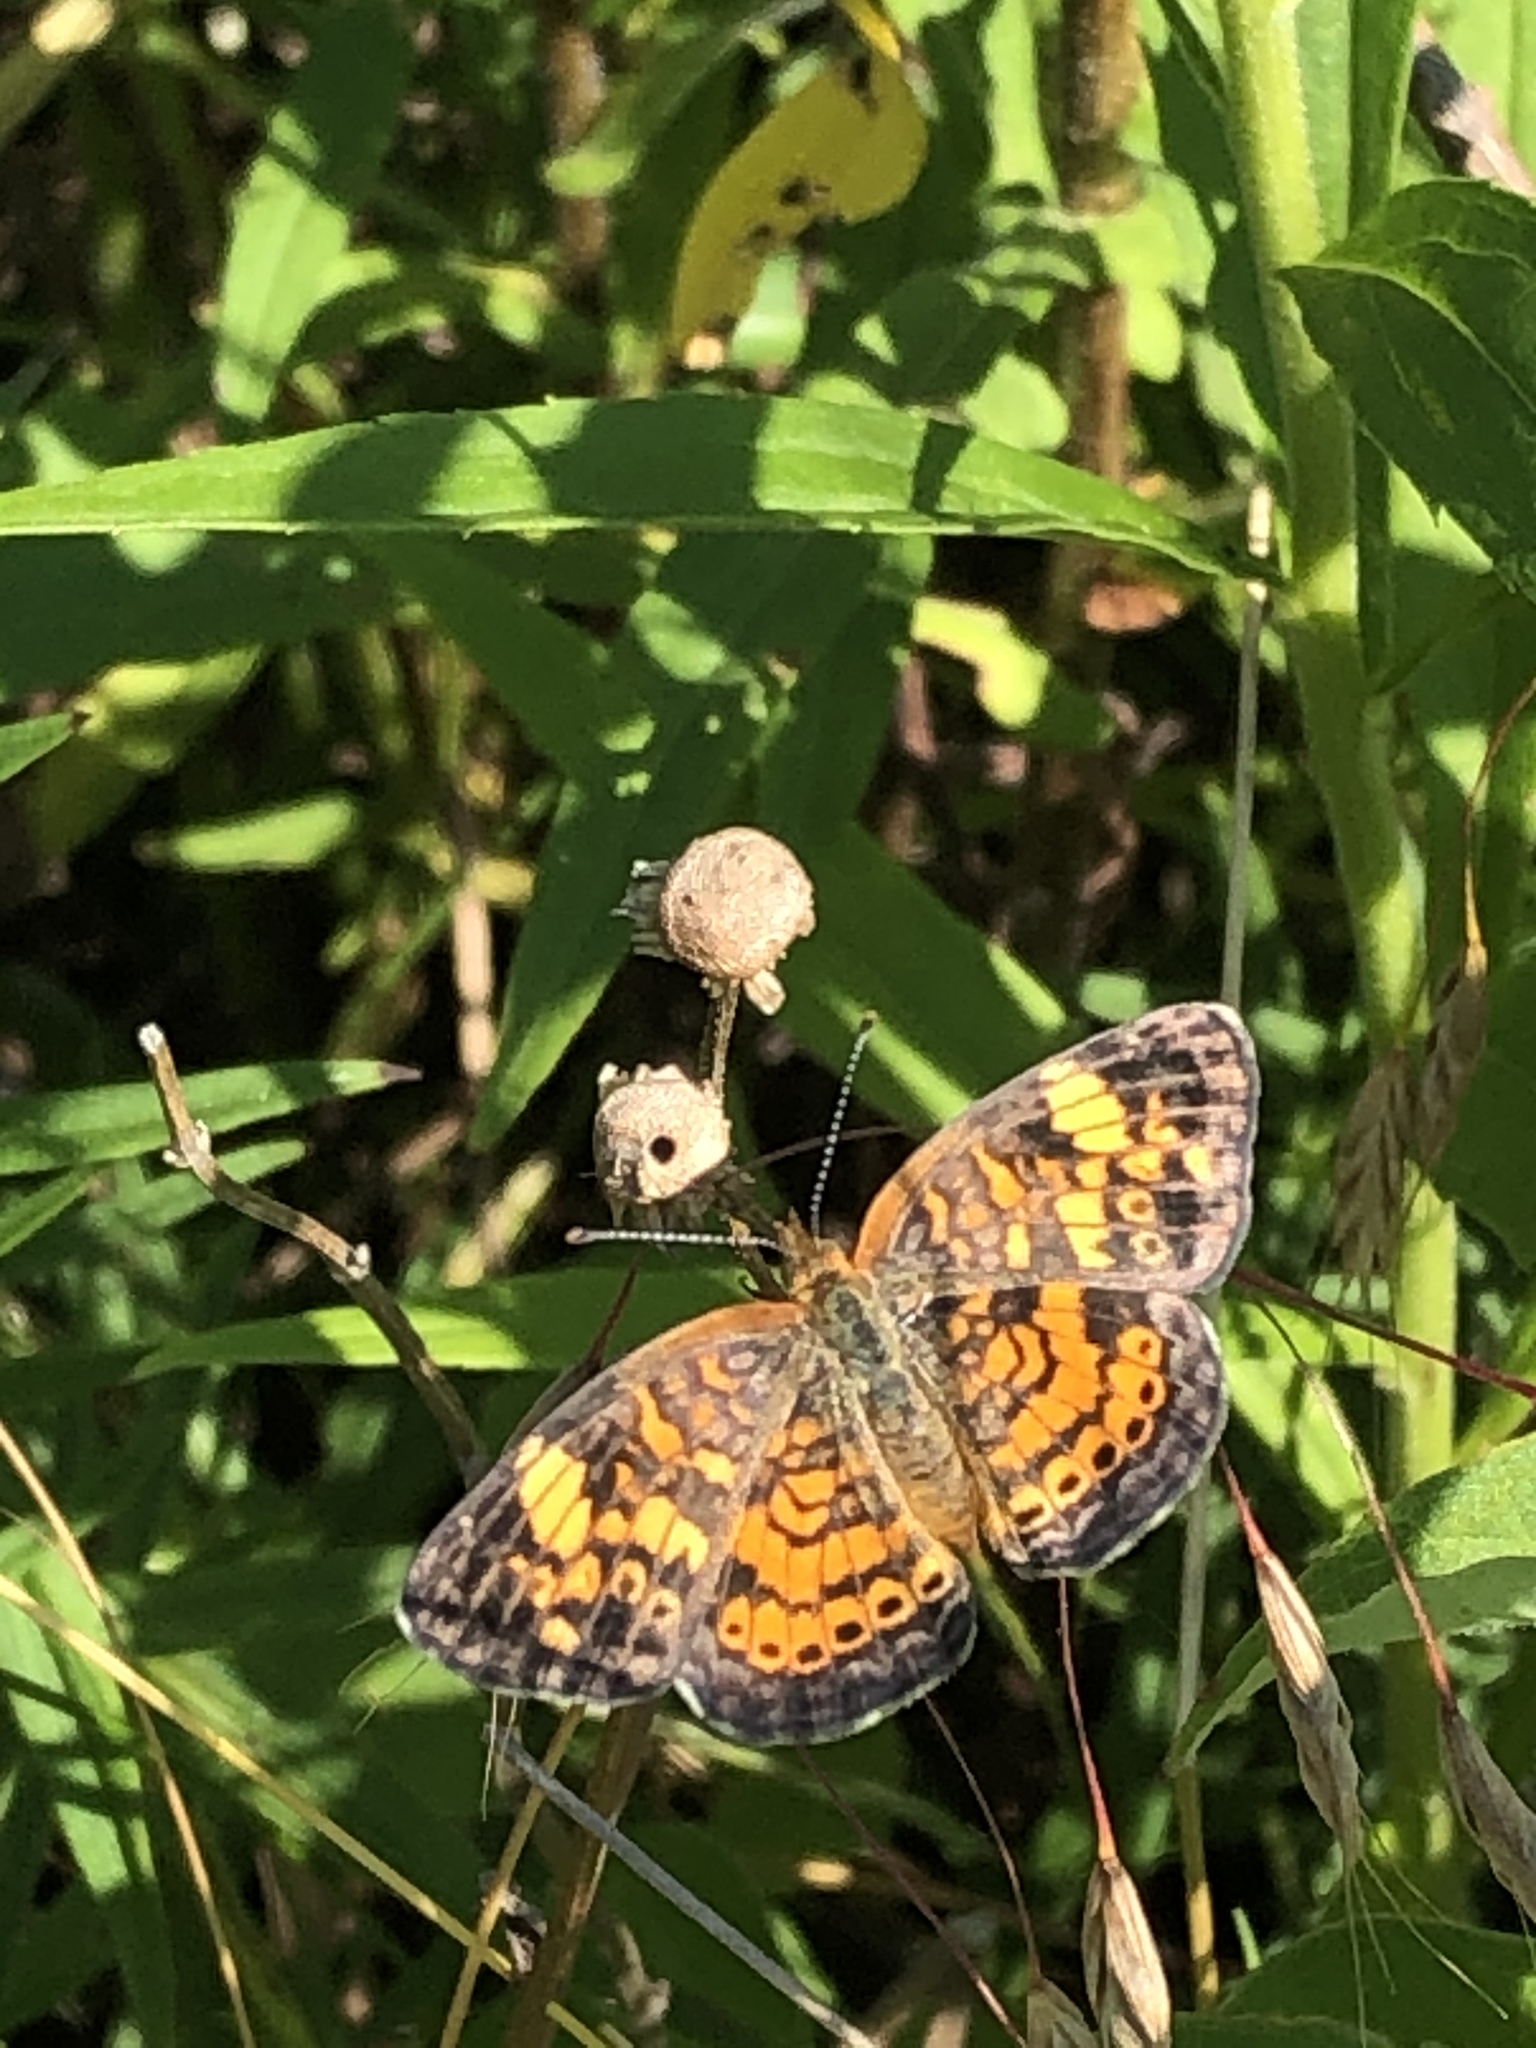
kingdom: Animalia
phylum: Arthropoda
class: Insecta
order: Lepidoptera
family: Nymphalidae
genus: Phyciodes
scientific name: Phyciodes tharos
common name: Pearl crescent
